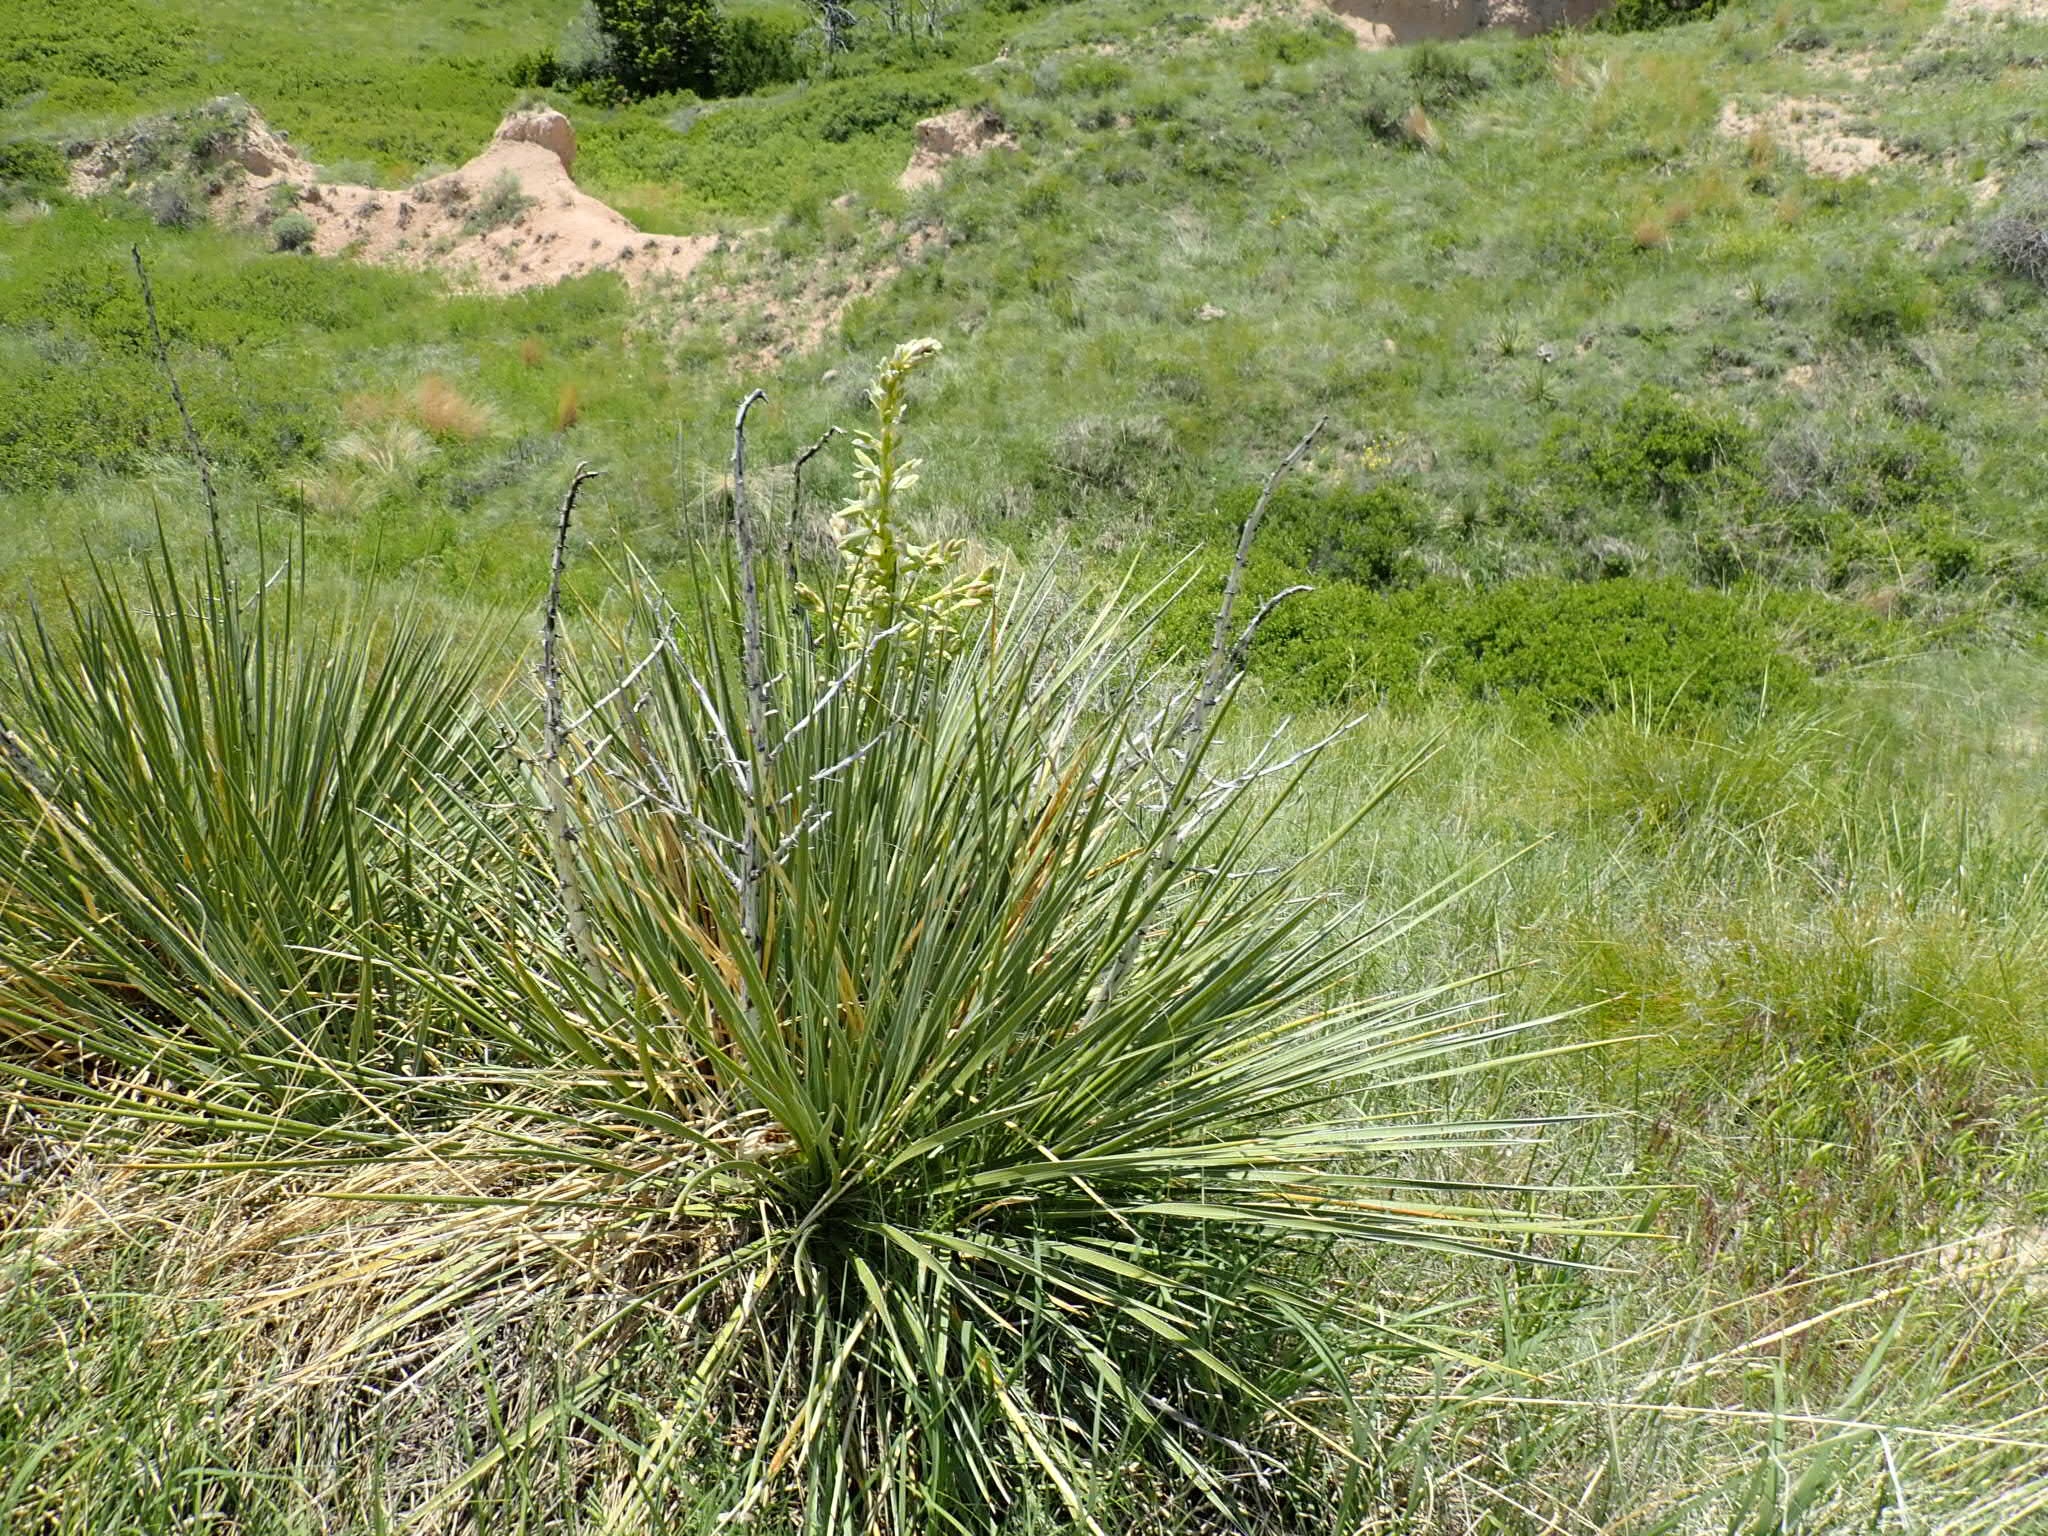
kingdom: Plantae
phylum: Tracheophyta
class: Liliopsida
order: Asparagales
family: Asparagaceae
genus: Yucca
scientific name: Yucca glauca
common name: Great plains yucca
